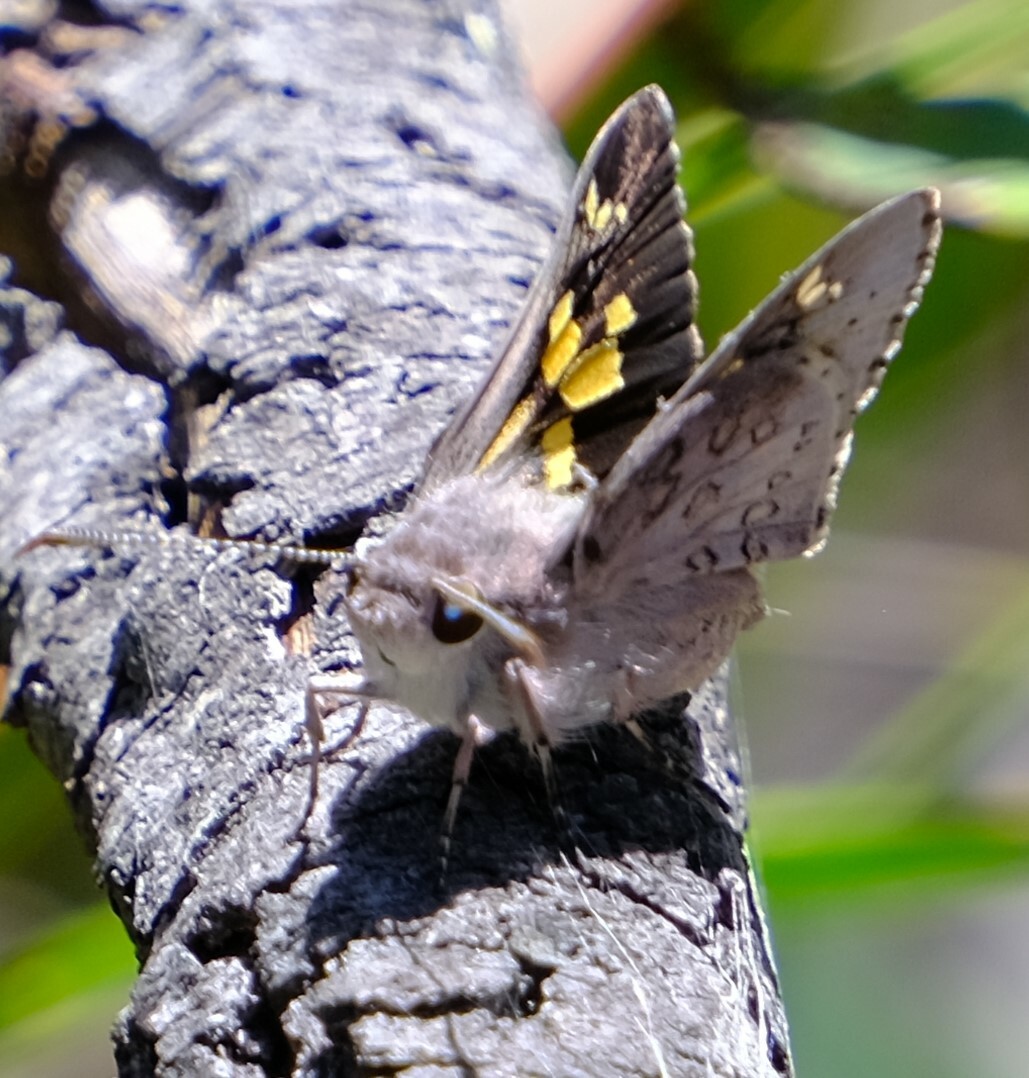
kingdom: Animalia
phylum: Arthropoda
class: Insecta
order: Lepidoptera
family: Hesperiidae
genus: Trapezites
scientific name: Trapezites phigalioides
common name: Montane ochre
